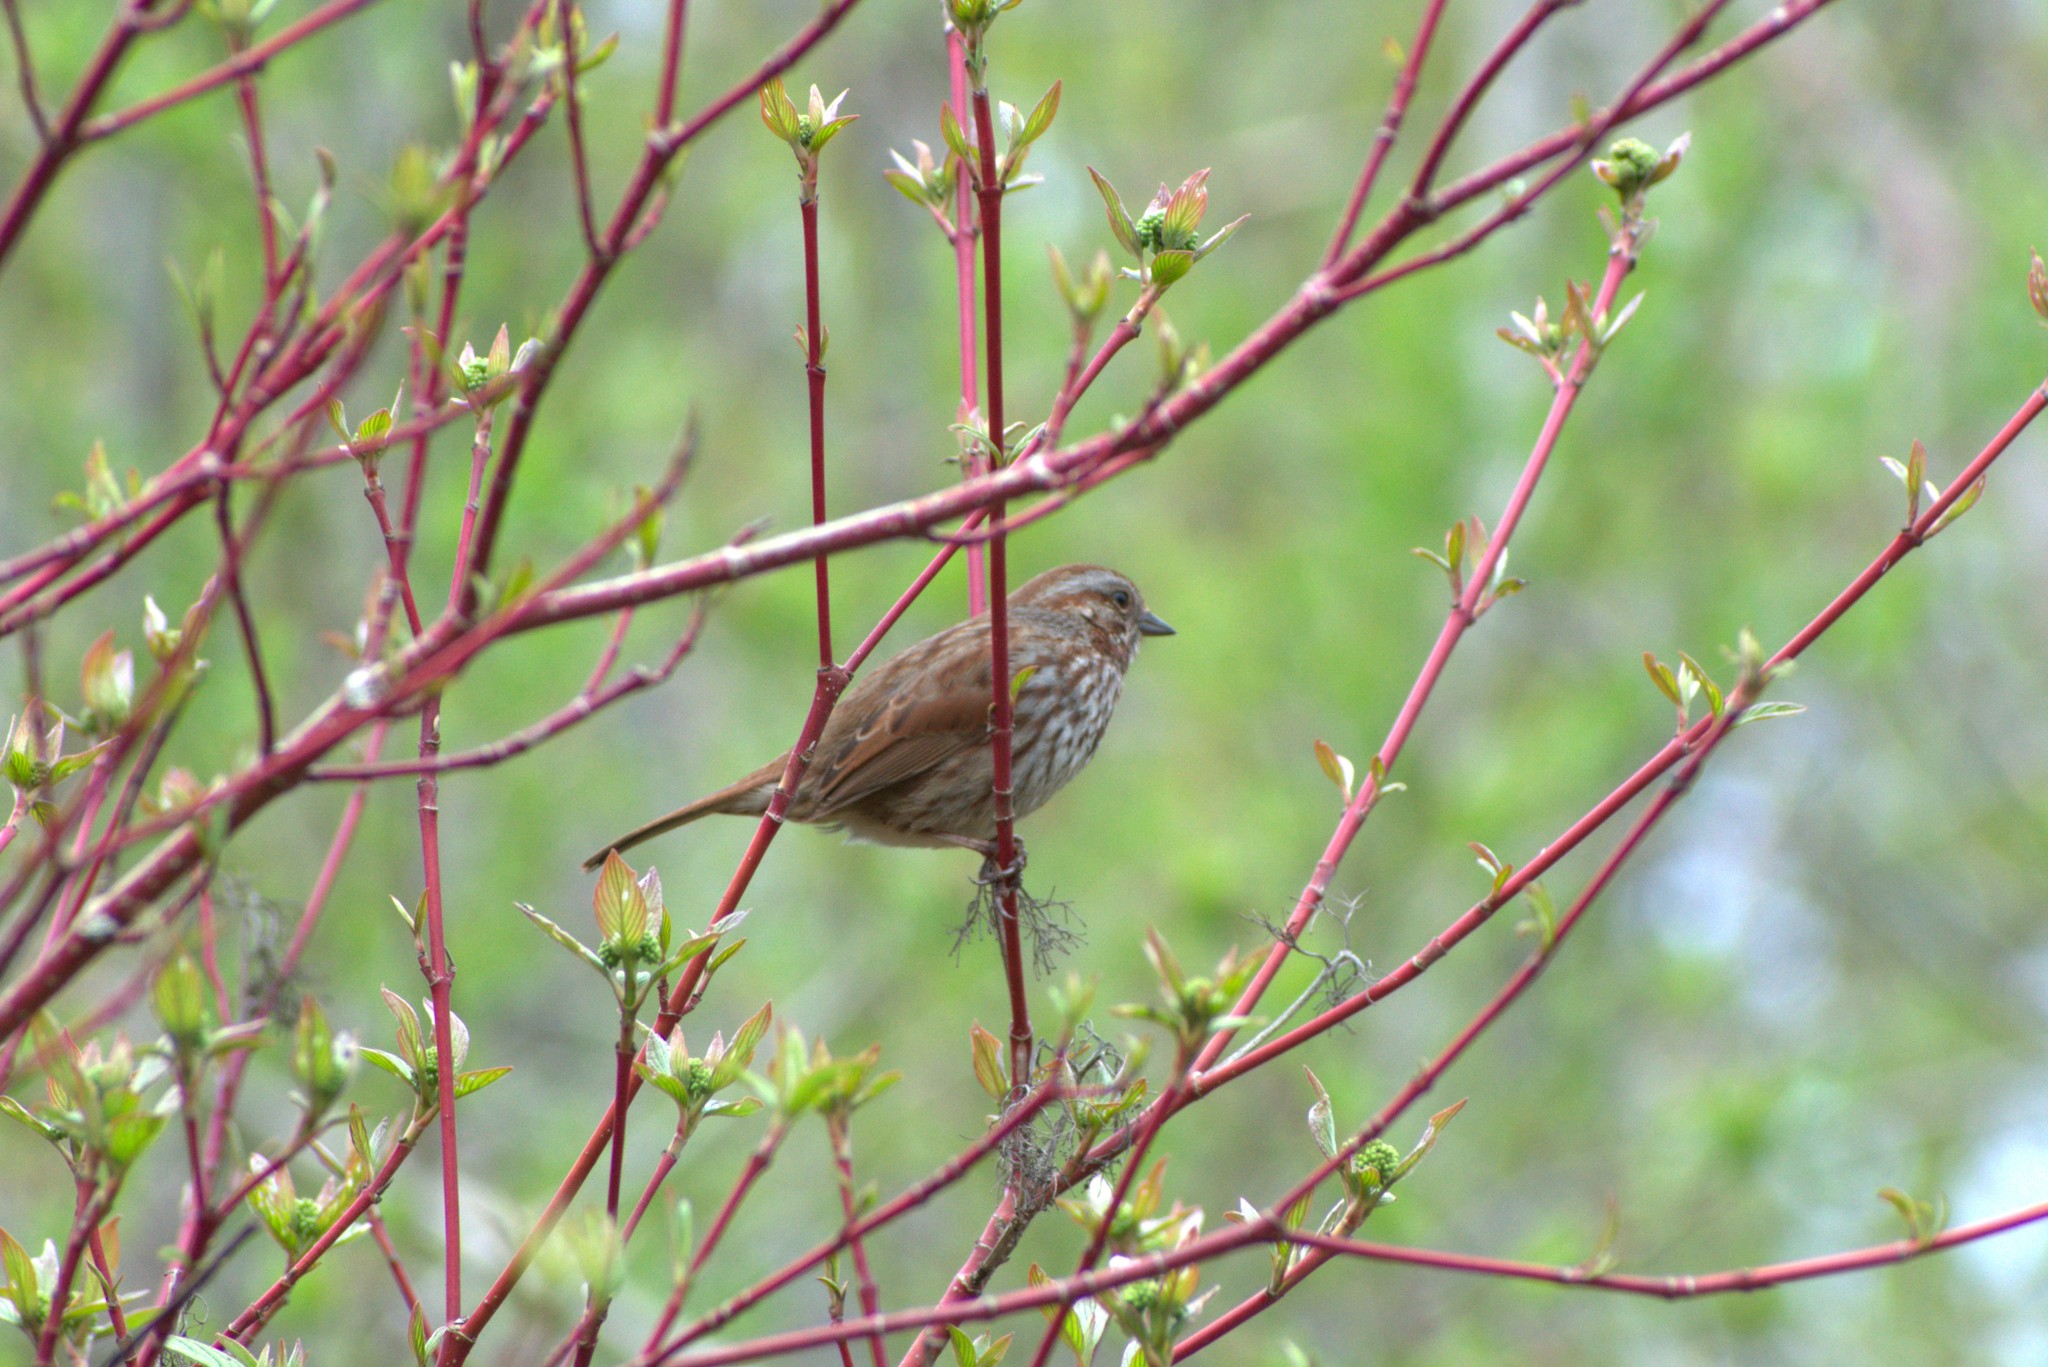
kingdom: Animalia
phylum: Chordata
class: Aves
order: Passeriformes
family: Passerellidae
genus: Melospiza
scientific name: Melospiza melodia
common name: Song sparrow
